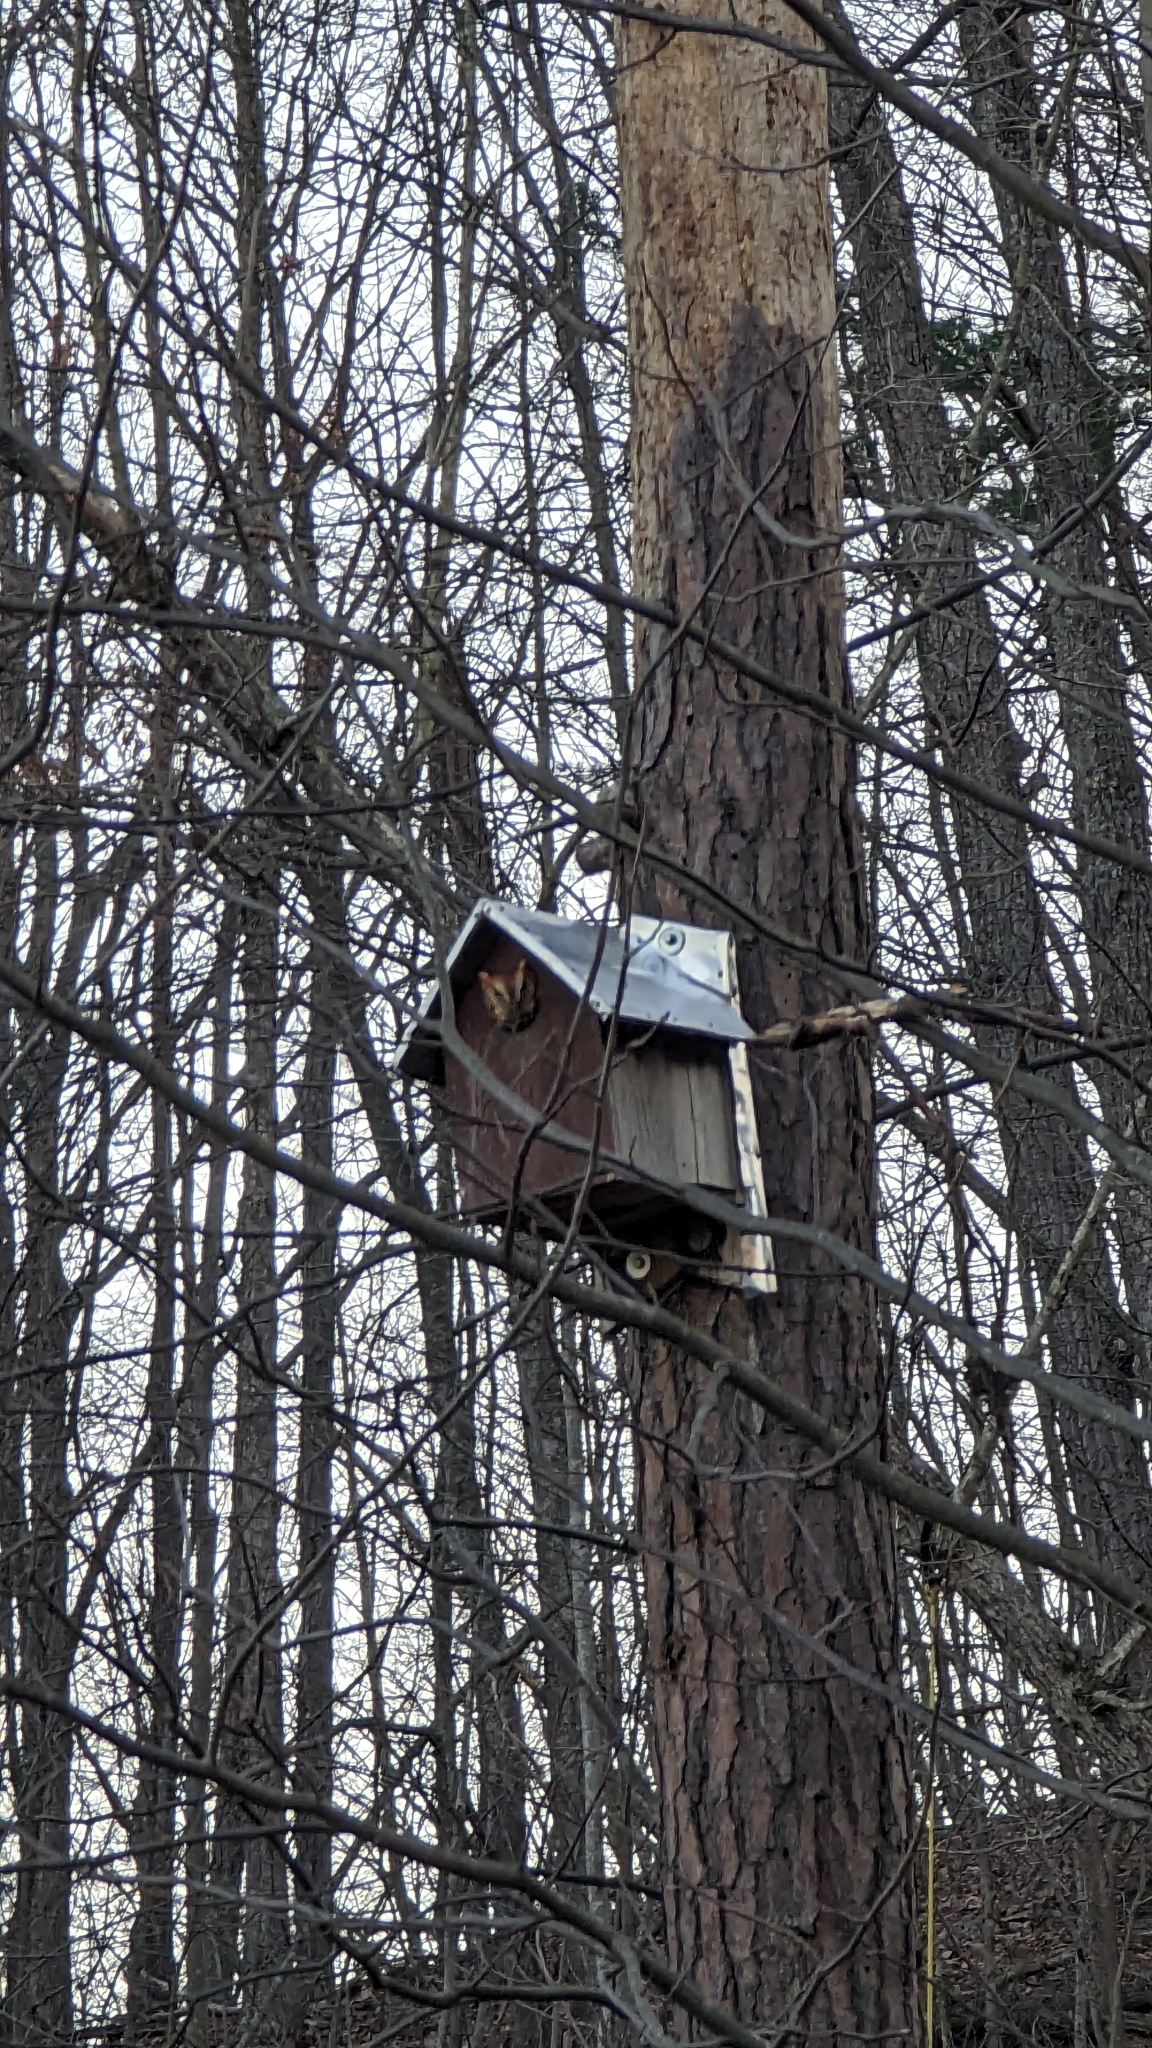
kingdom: Animalia
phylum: Chordata
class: Aves
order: Strigiformes
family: Strigidae
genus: Megascops
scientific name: Megascops asio
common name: Eastern screech-owl
